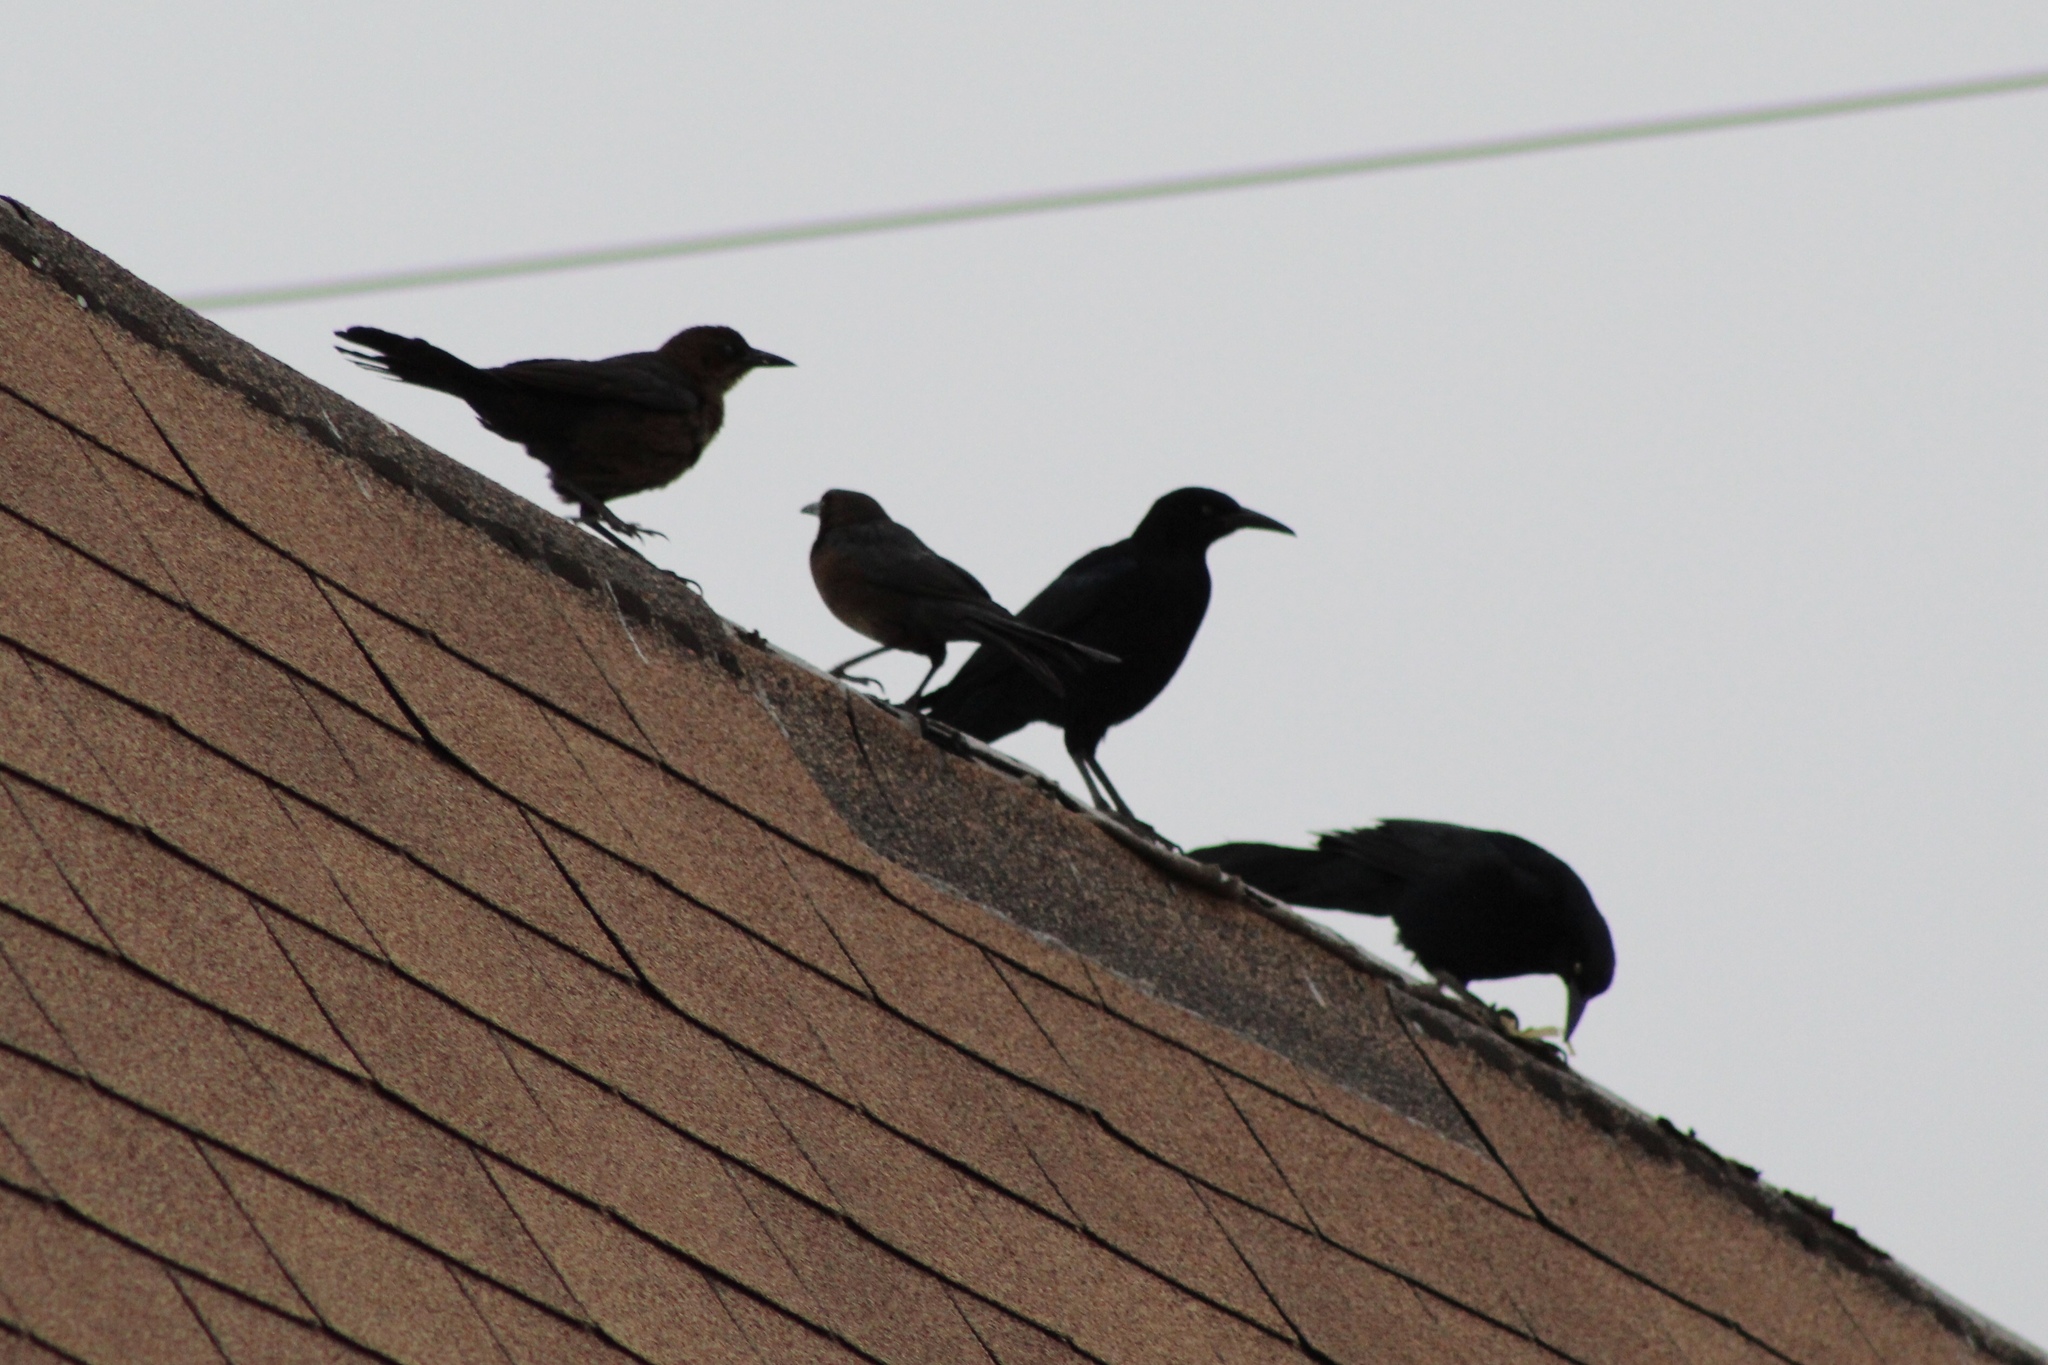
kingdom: Animalia
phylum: Chordata
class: Aves
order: Passeriformes
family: Icteridae
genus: Quiscalus
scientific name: Quiscalus mexicanus
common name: Great-tailed grackle
